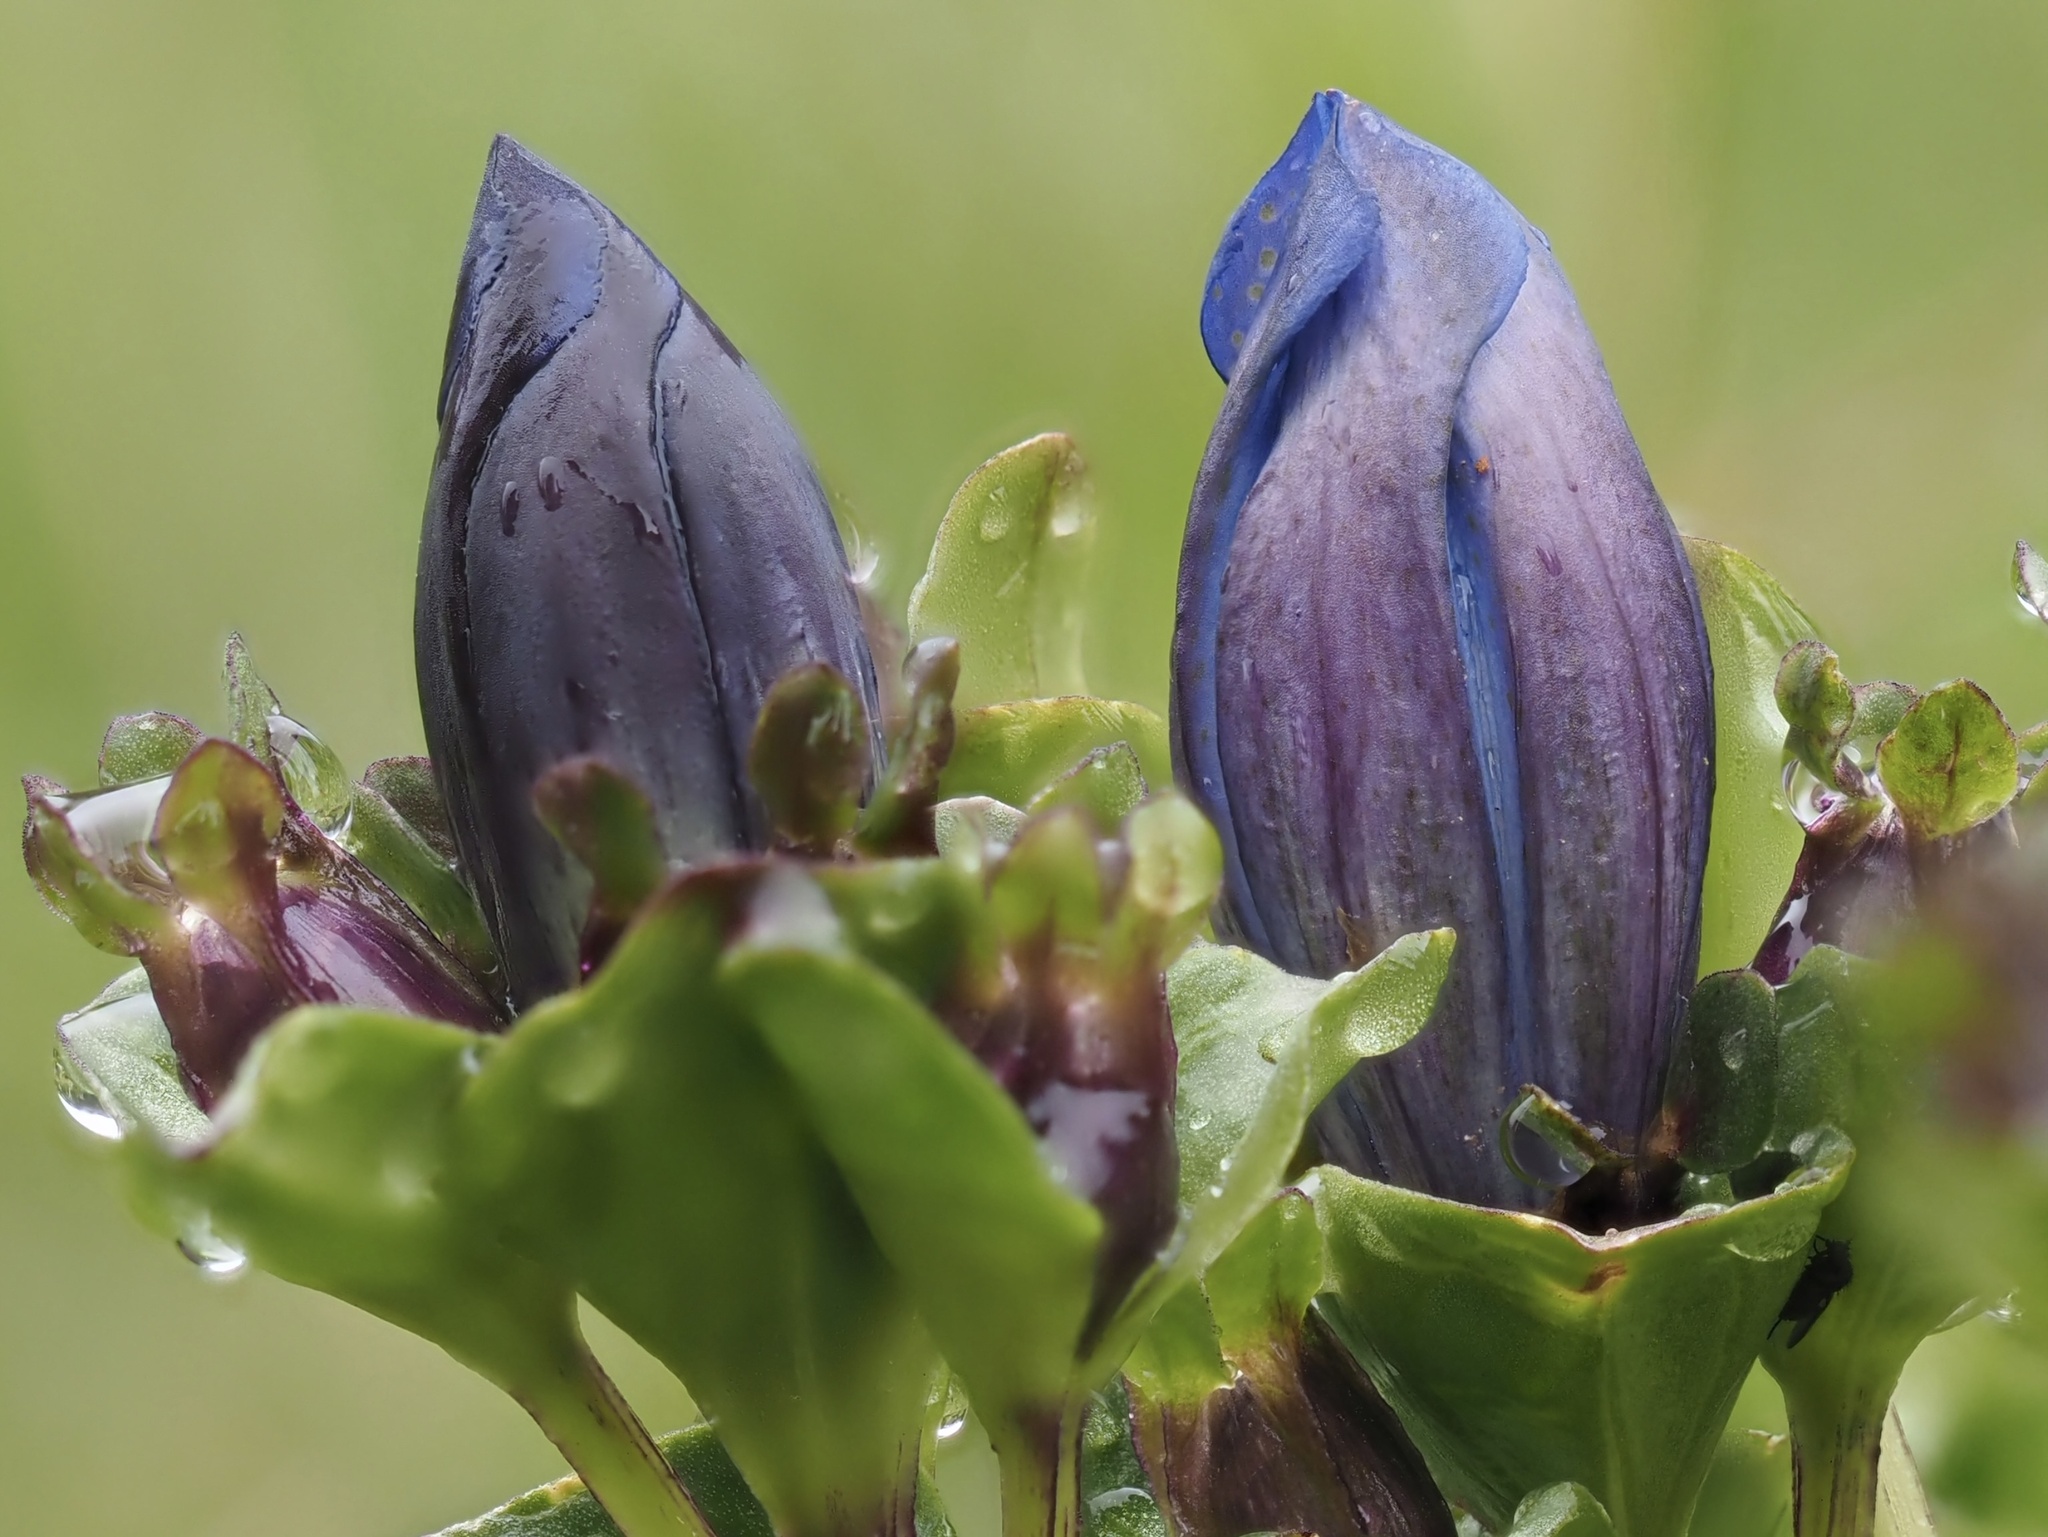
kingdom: Plantae
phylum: Tracheophyta
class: Magnoliopsida
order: Gentianales
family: Gentianaceae
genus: Gentiana
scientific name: Gentiana calycosa
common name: Rainier pleated gentian
